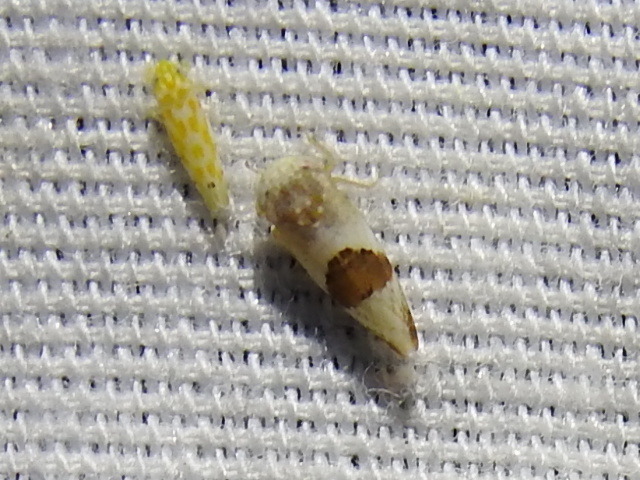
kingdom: Animalia
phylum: Arthropoda
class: Insecta
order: Hemiptera
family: Cicadellidae
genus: Norvellina
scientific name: Norvellina seminuda
